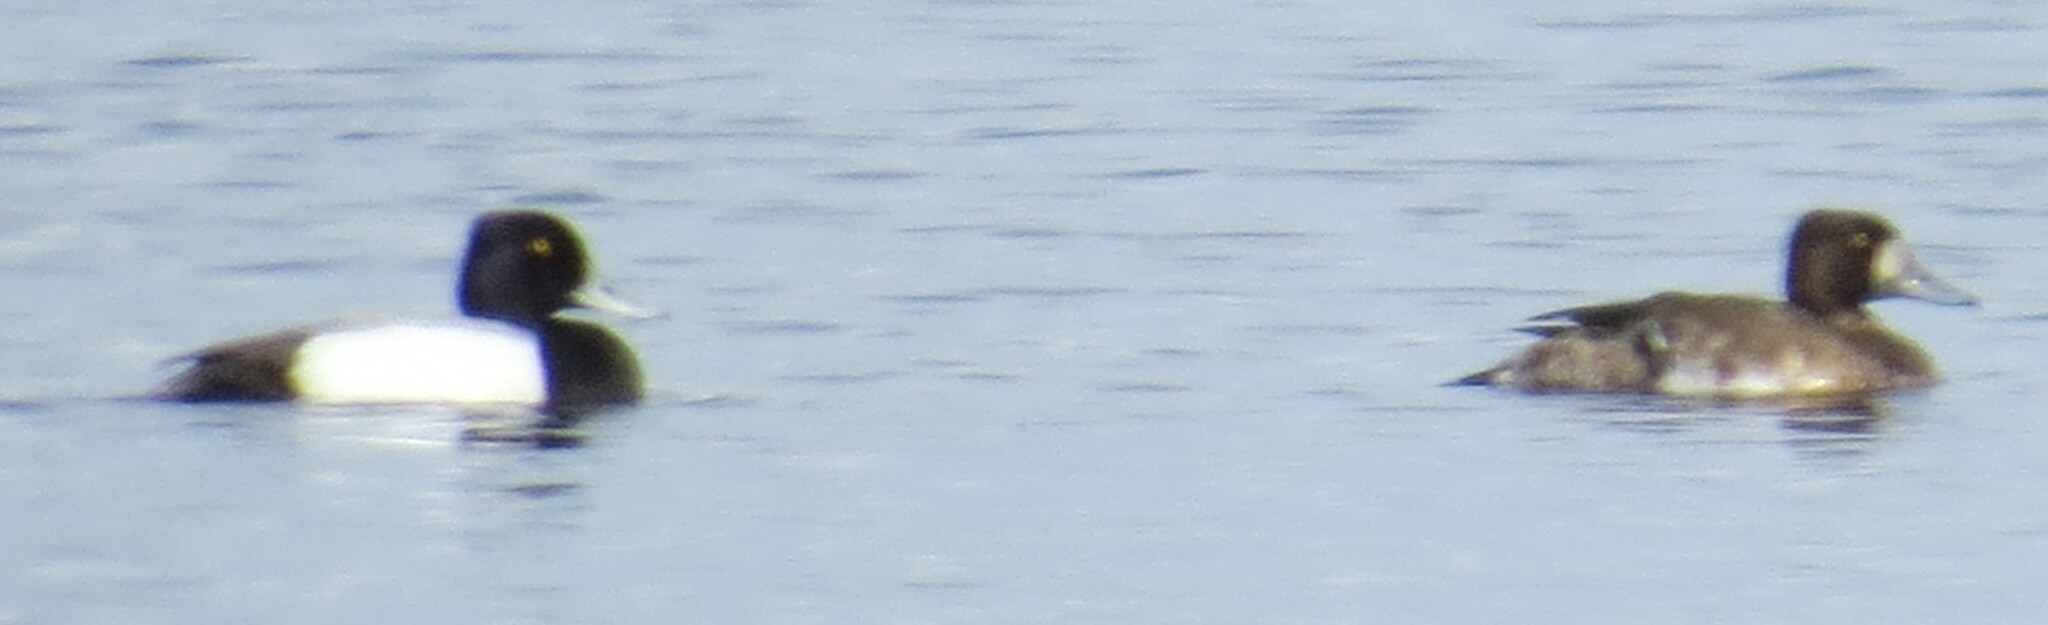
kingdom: Animalia
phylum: Chordata
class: Aves
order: Anseriformes
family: Anatidae
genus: Aythya
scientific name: Aythya affinis
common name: Lesser scaup
